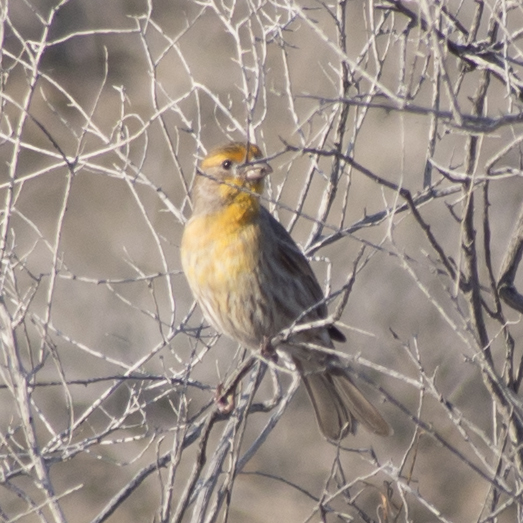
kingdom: Animalia
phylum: Chordata
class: Aves
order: Passeriformes
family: Fringillidae
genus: Haemorhous
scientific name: Haemorhous mexicanus
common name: House finch
